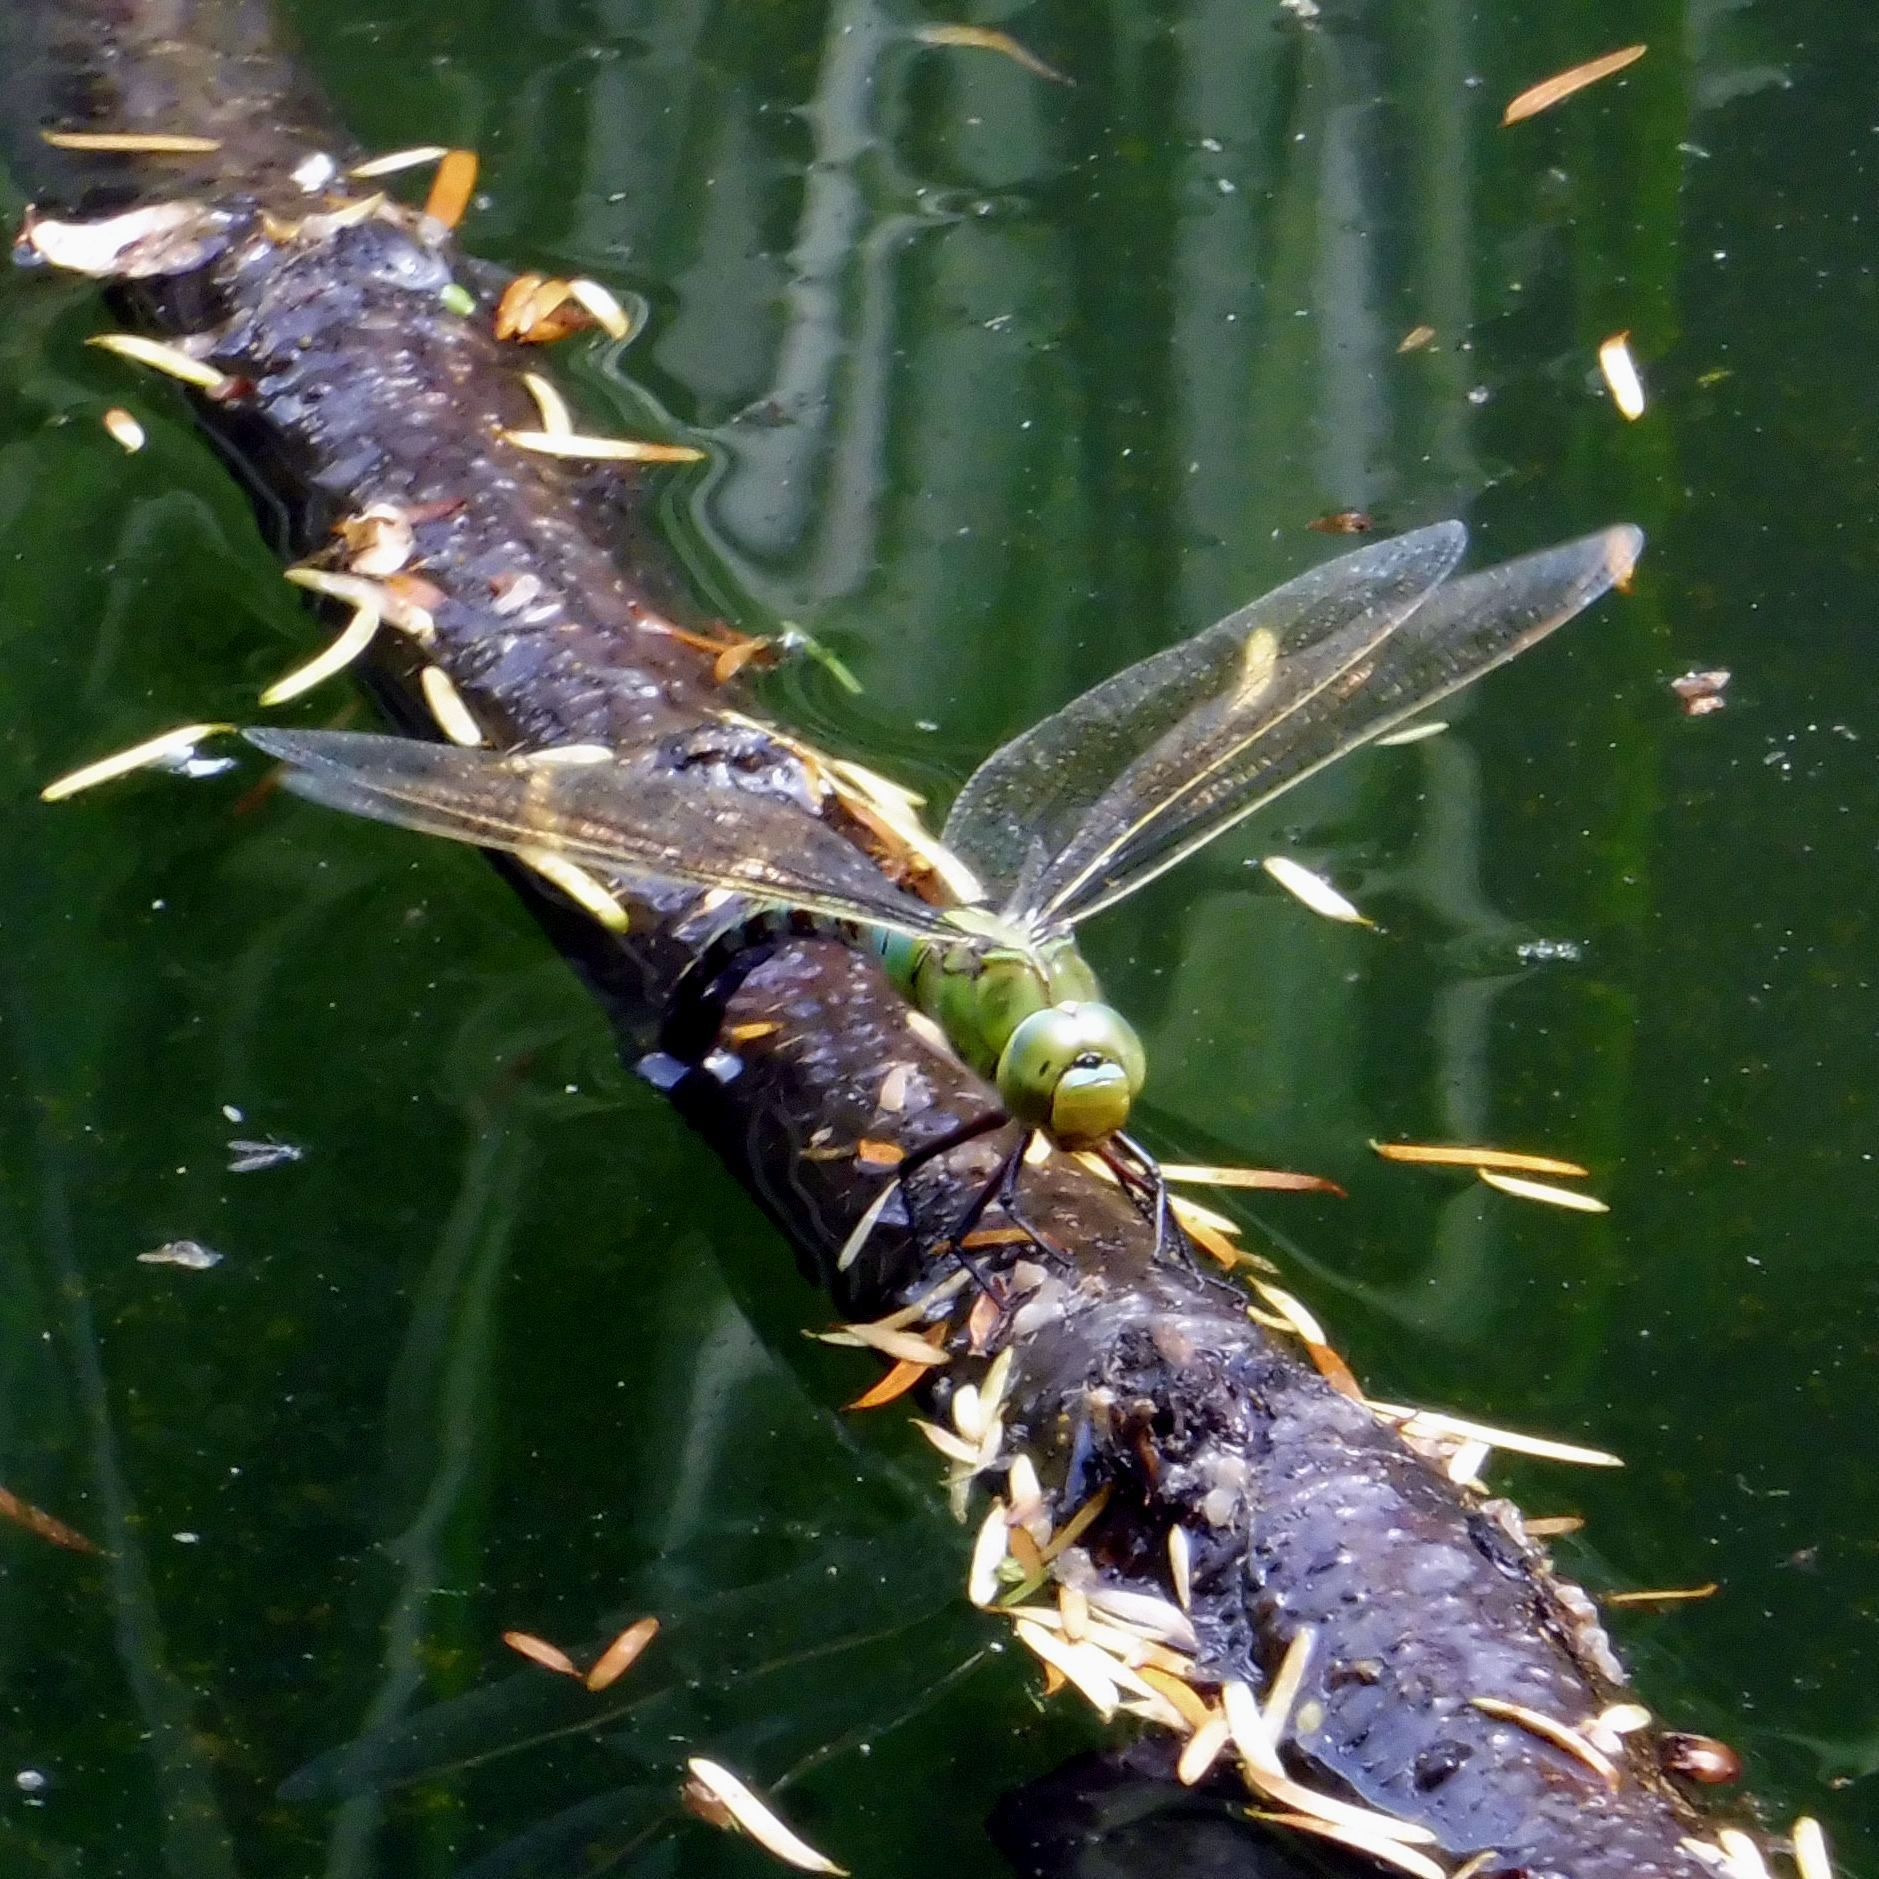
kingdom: Animalia
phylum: Arthropoda
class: Insecta
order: Odonata
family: Aeshnidae
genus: Anax
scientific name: Anax imperator
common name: Emperor dragonfly
